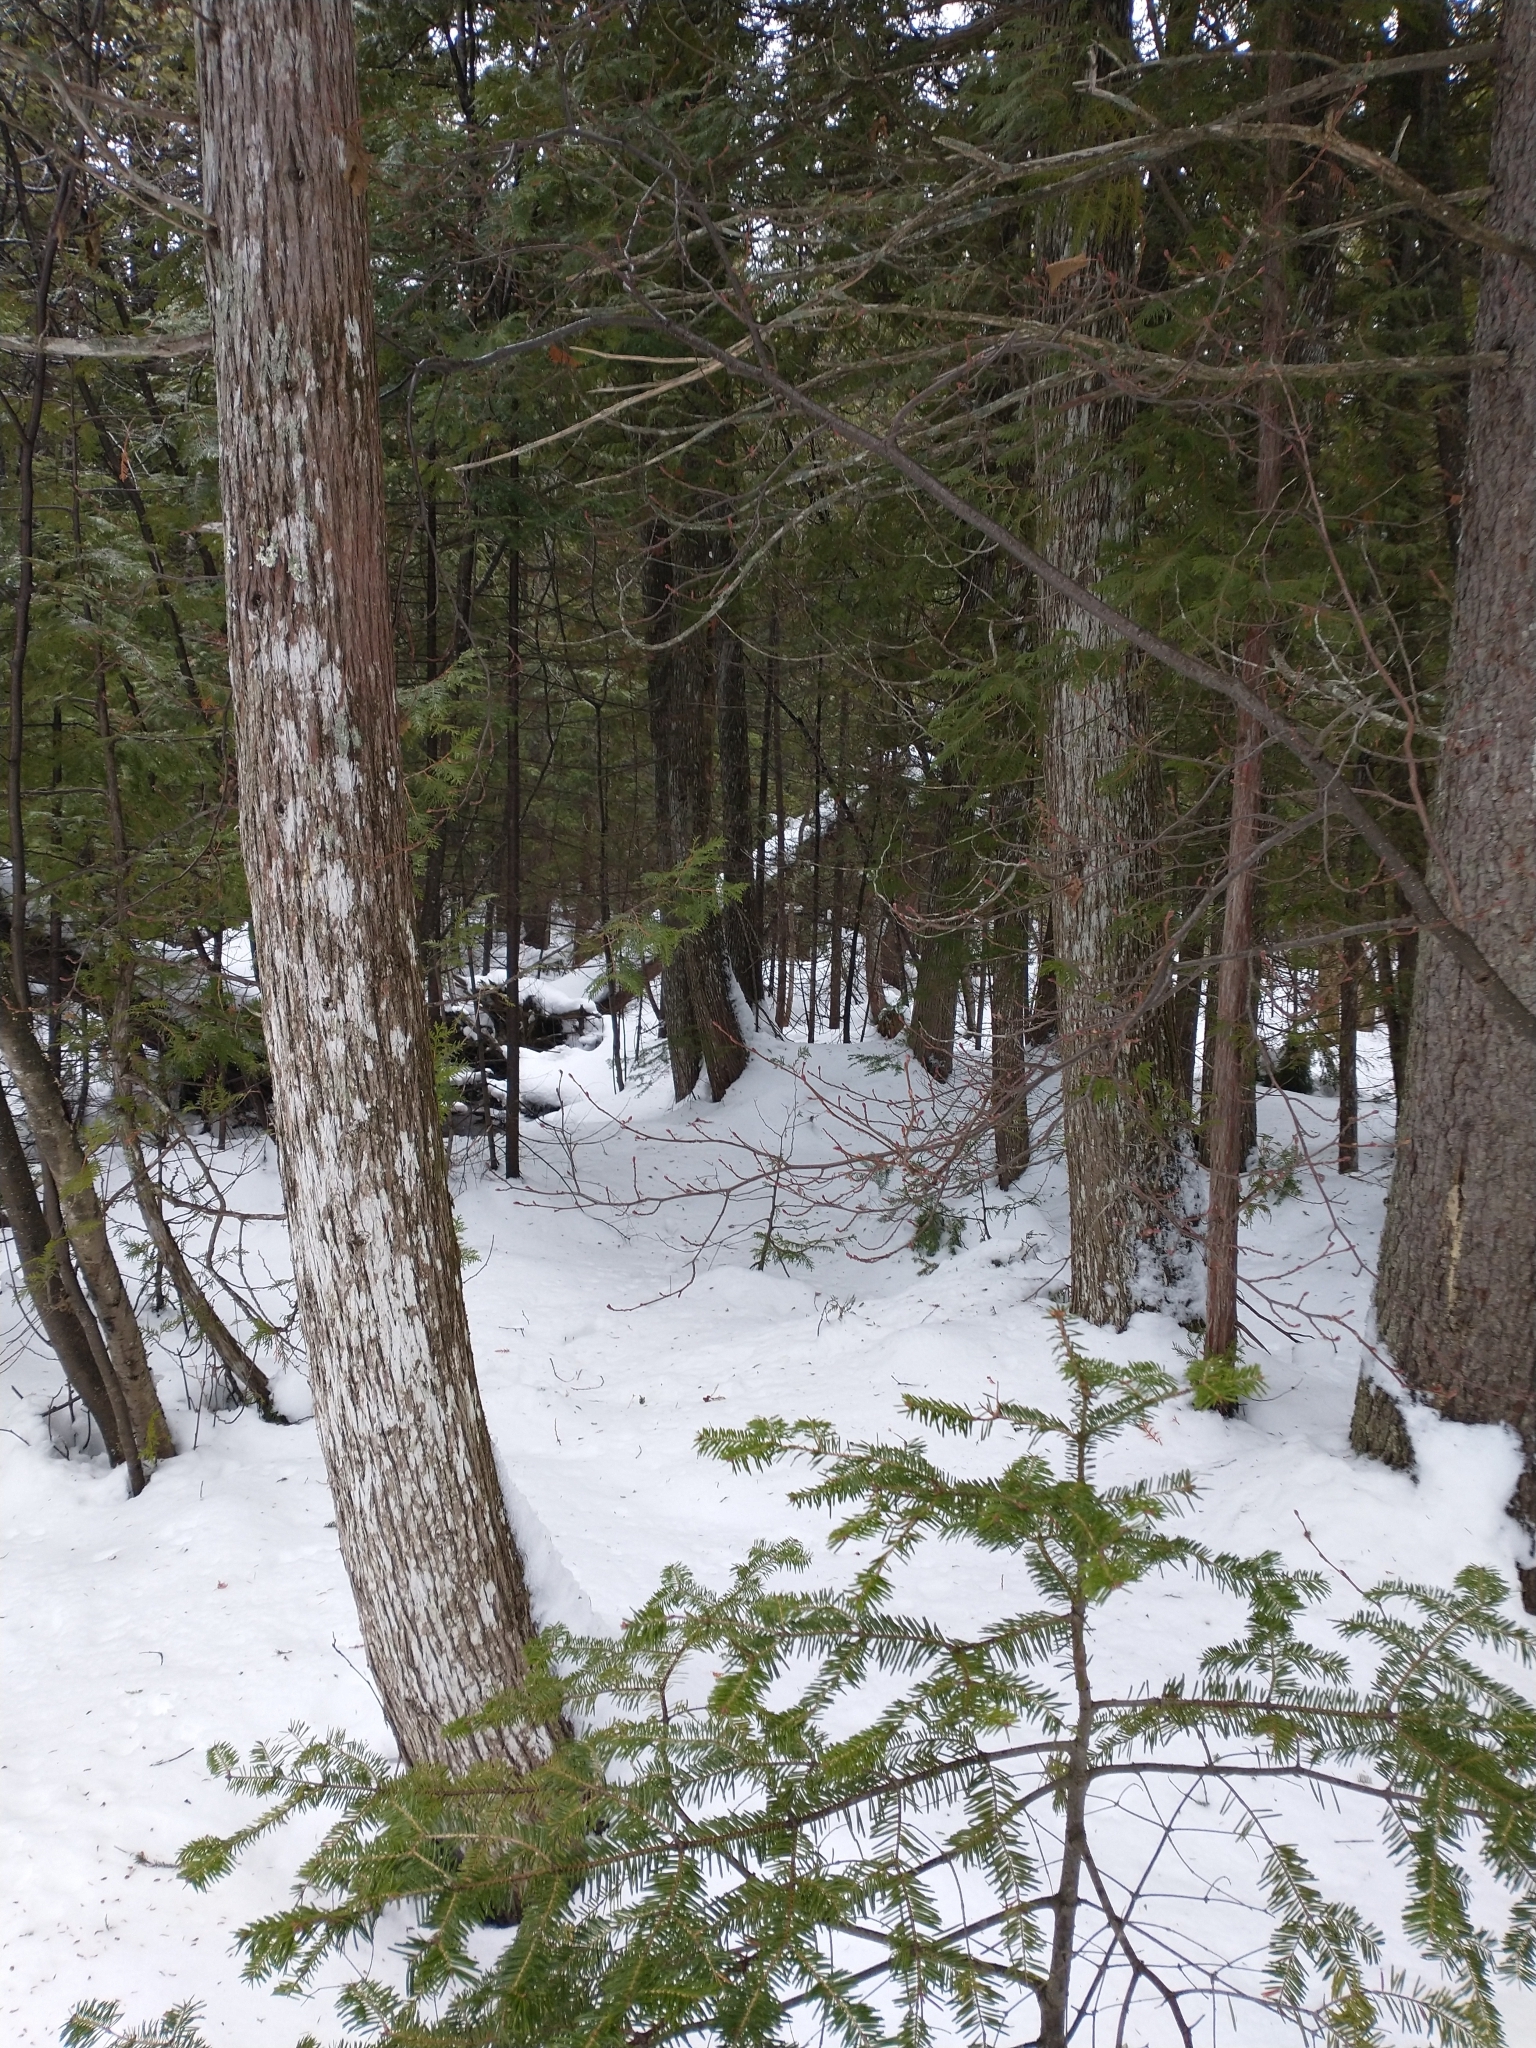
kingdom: Plantae
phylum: Tracheophyta
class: Pinopsida
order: Pinales
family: Pinaceae
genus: Abies
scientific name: Abies balsamea
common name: Balsam fir
